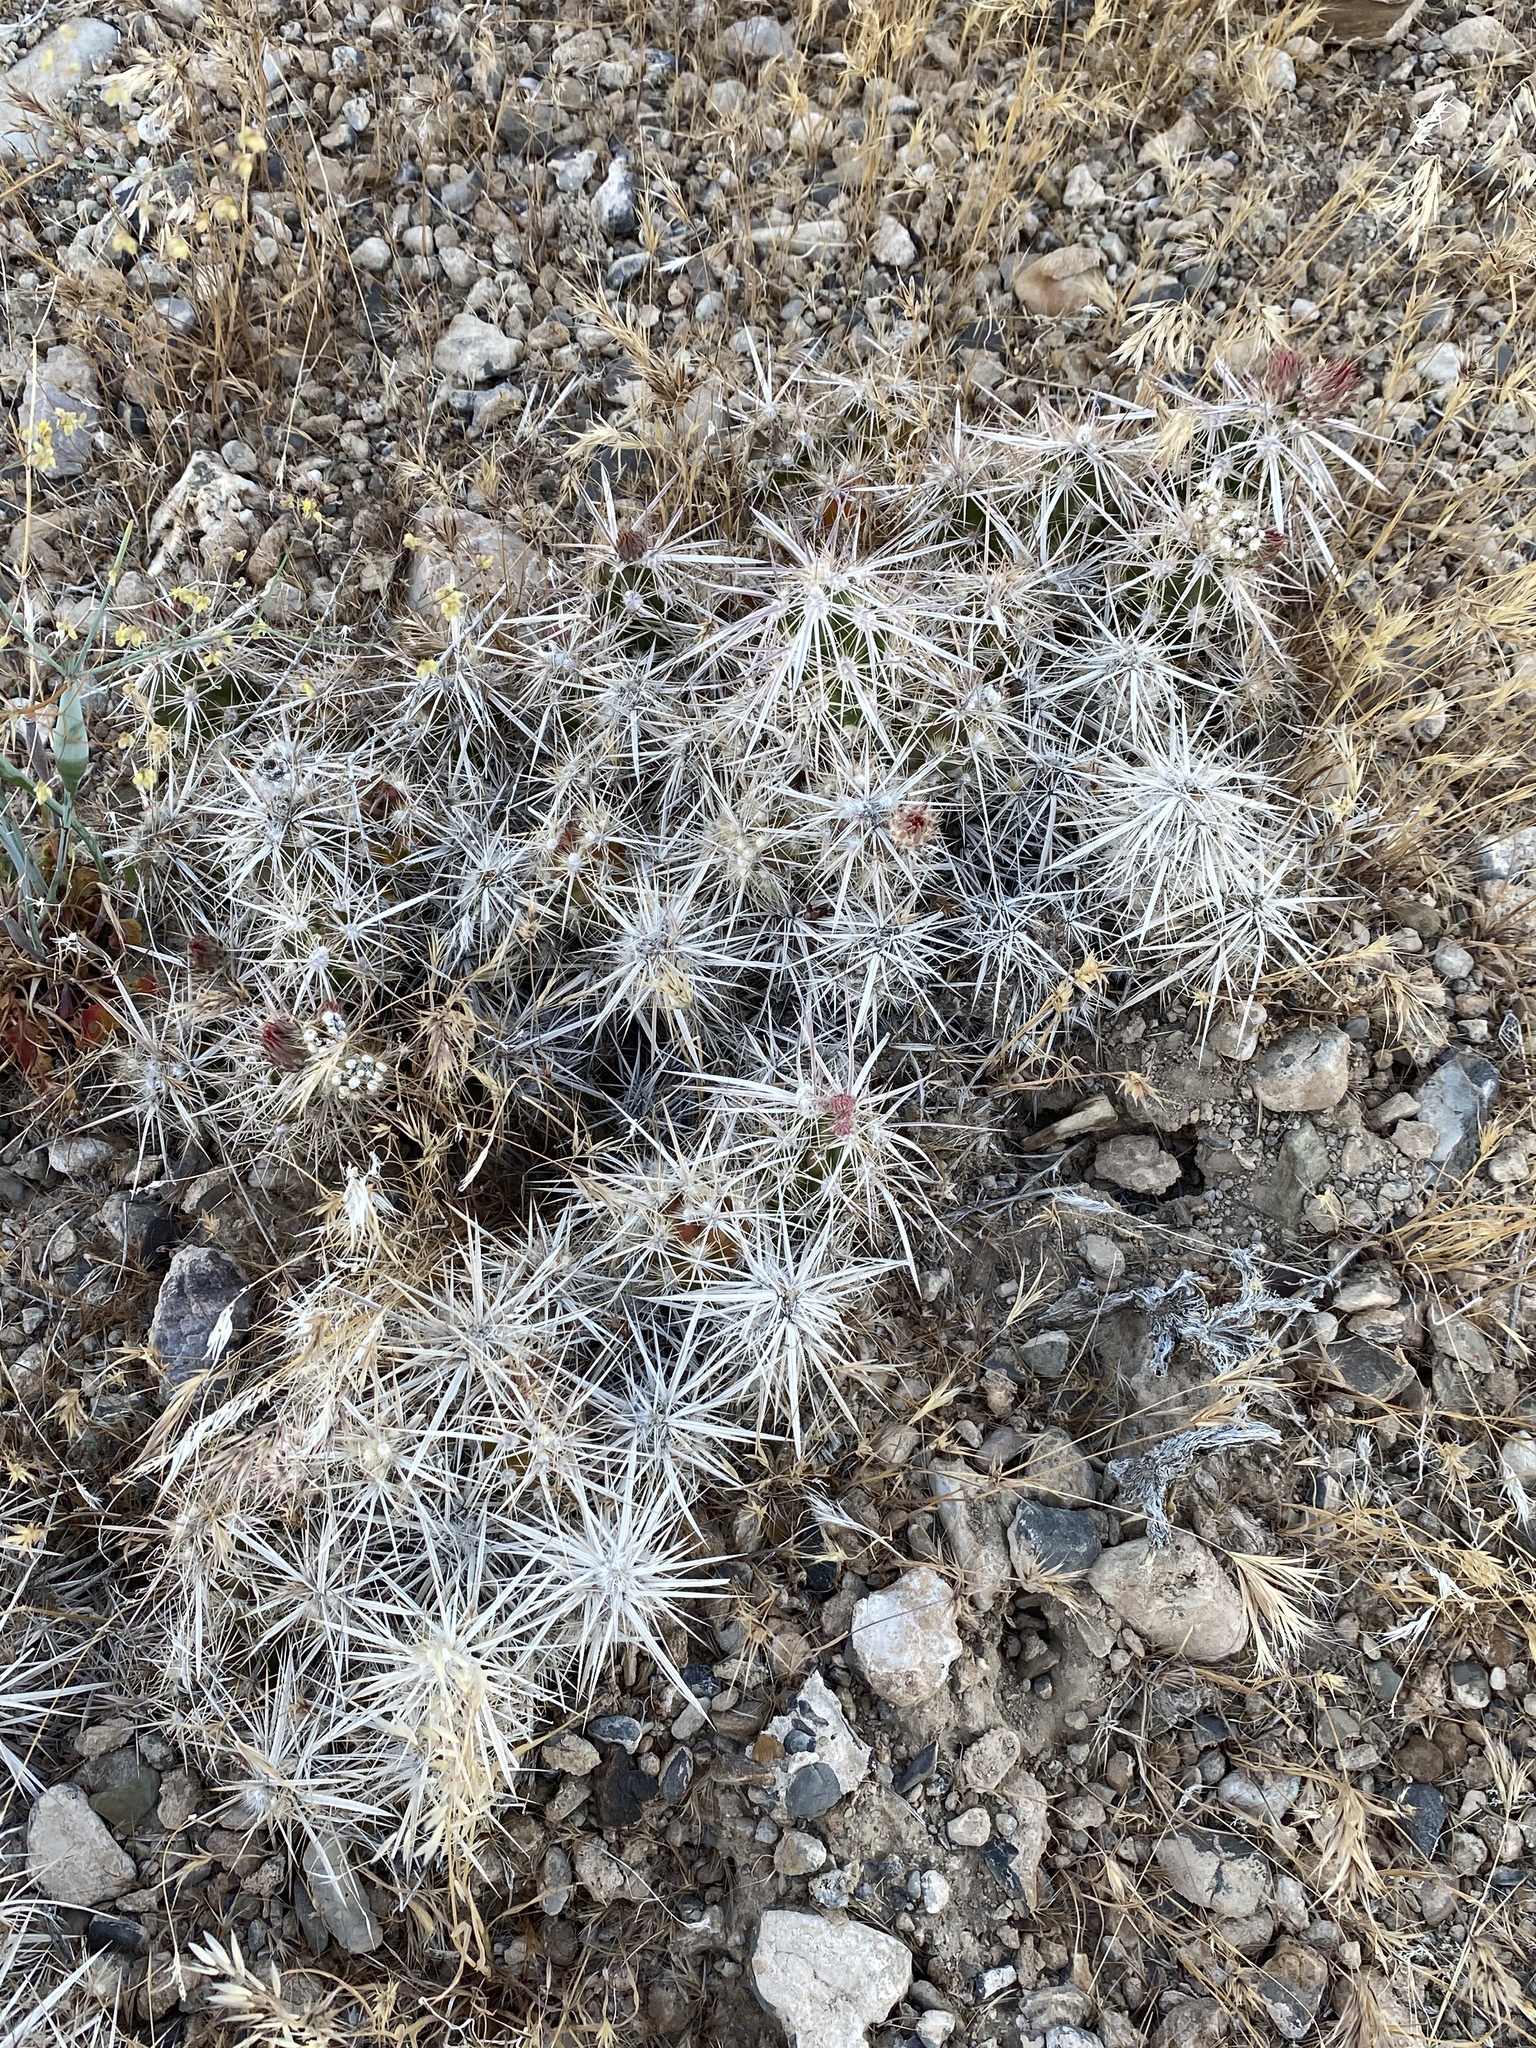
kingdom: Plantae
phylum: Tracheophyta
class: Magnoliopsida
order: Caryophyllales
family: Cactaceae
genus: Grusonia
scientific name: Grusonia parishiorum
